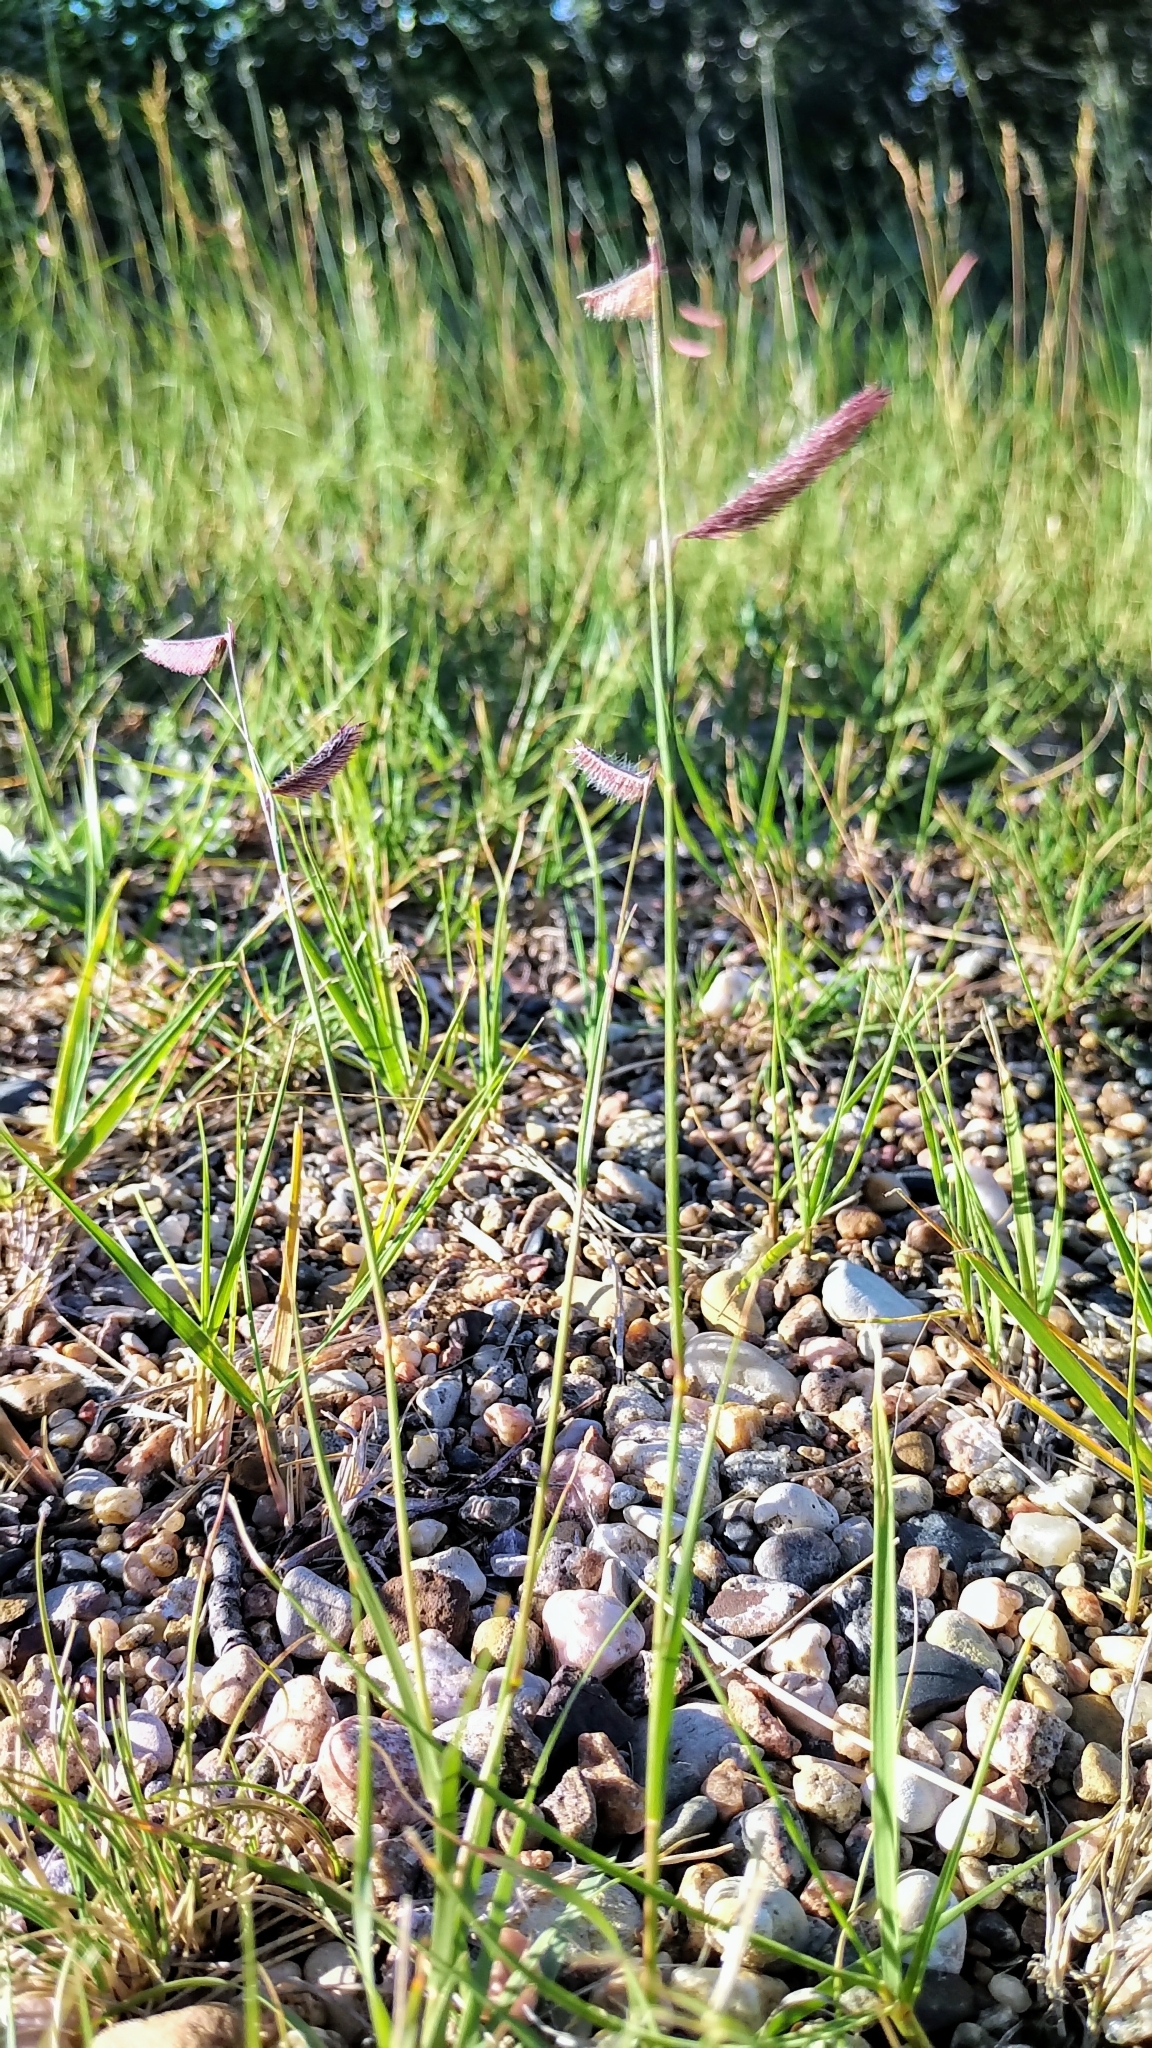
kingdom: Plantae
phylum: Tracheophyta
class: Liliopsida
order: Poales
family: Poaceae
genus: Bouteloua
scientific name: Bouteloua gracilis
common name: Blue grama
